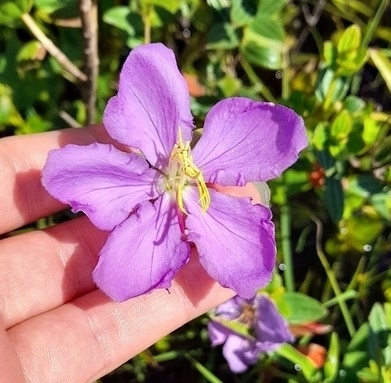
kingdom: Plantae
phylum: Tracheophyta
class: Magnoliopsida
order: Myrtales
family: Melastomataceae
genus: Pleroma
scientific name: Pleroma asperius
